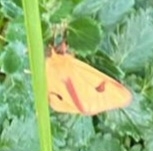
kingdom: Animalia
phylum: Arthropoda
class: Insecta
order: Lepidoptera
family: Erebidae
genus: Diacrisia
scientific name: Diacrisia sannio
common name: Clouded buff
